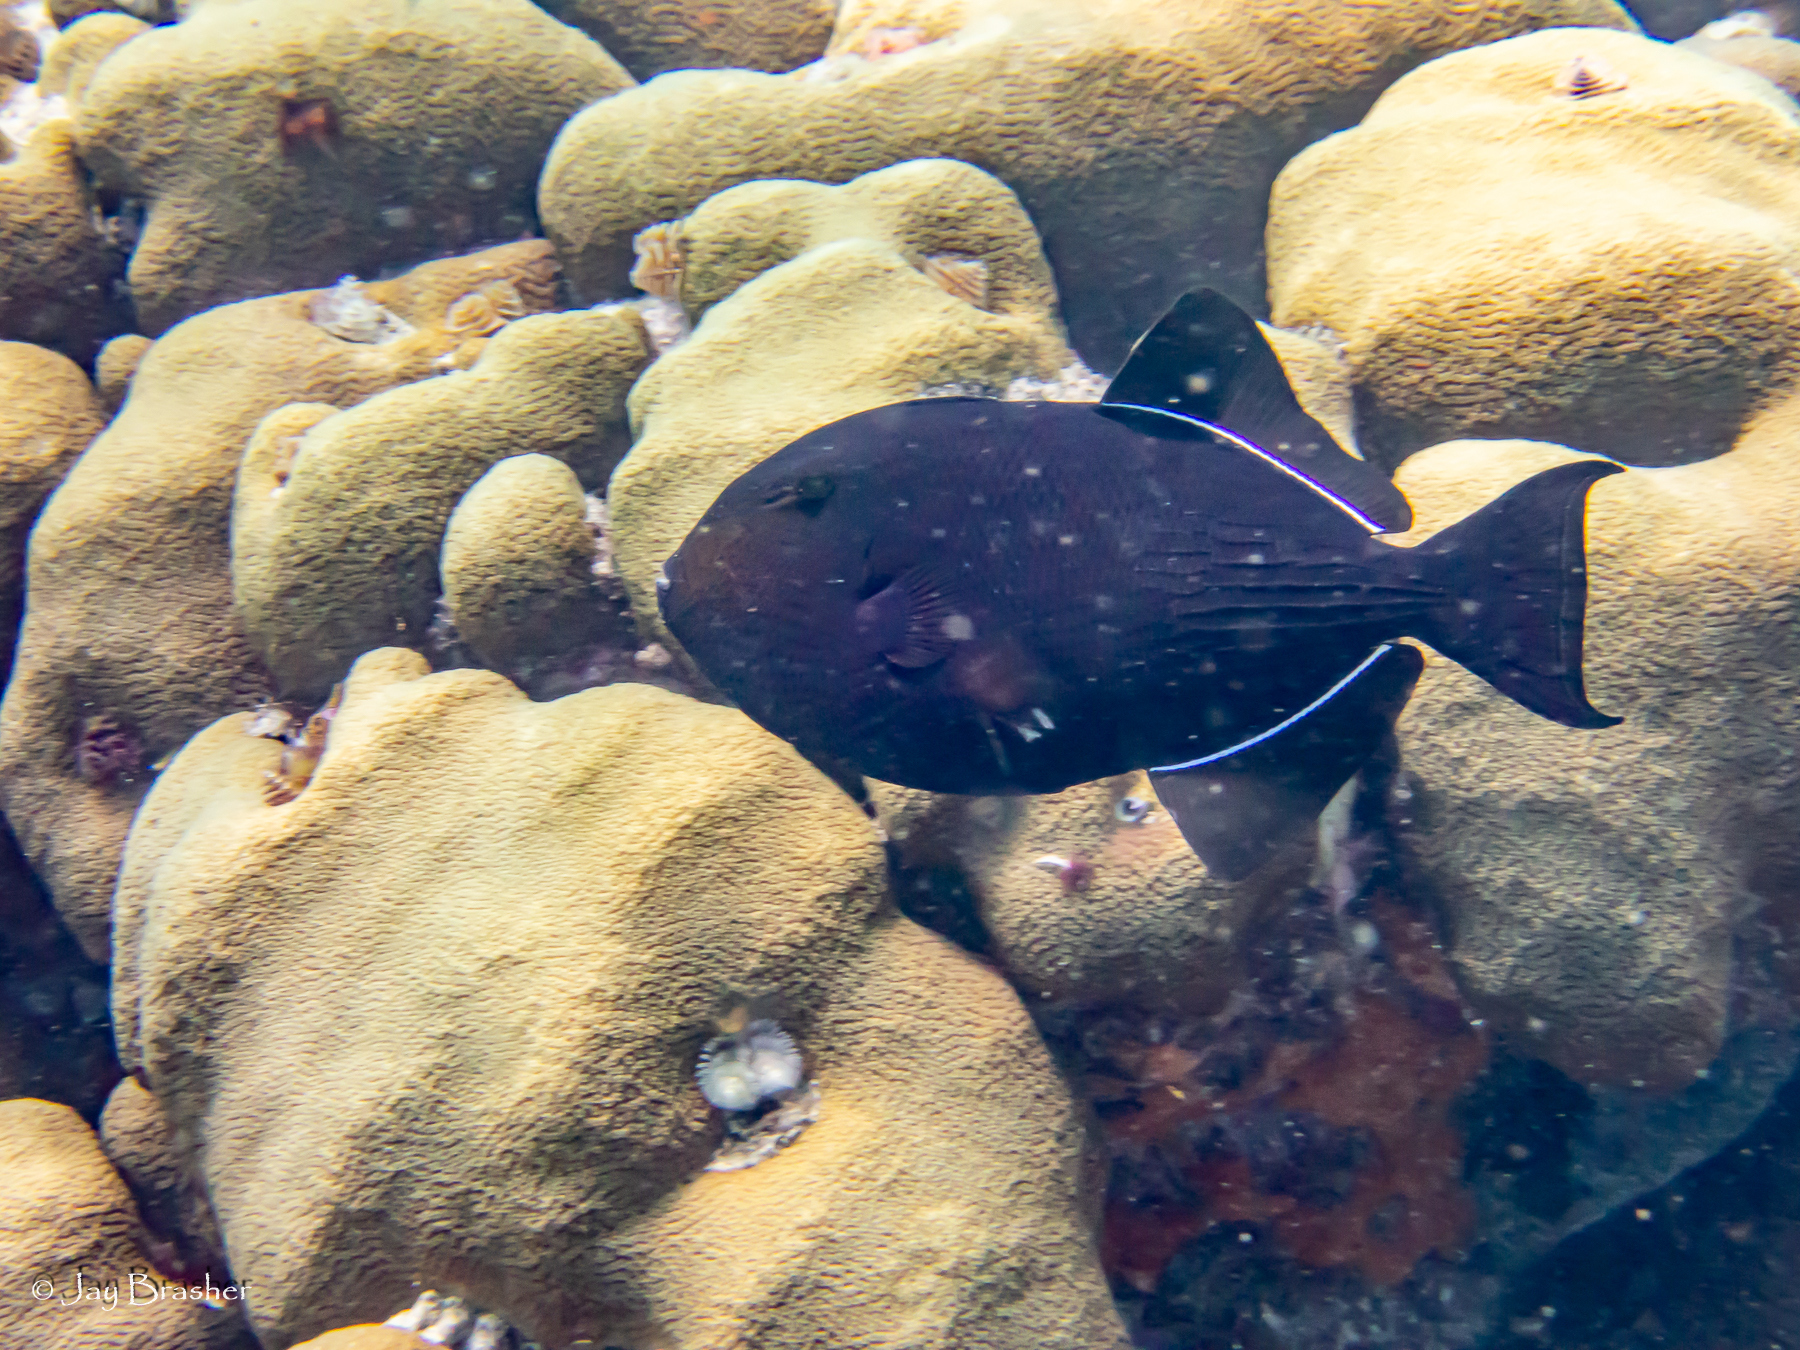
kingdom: Animalia
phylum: Chordata
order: Tetraodontiformes
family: Balistidae
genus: Melichthys
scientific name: Melichthys niger
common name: Black durgon
